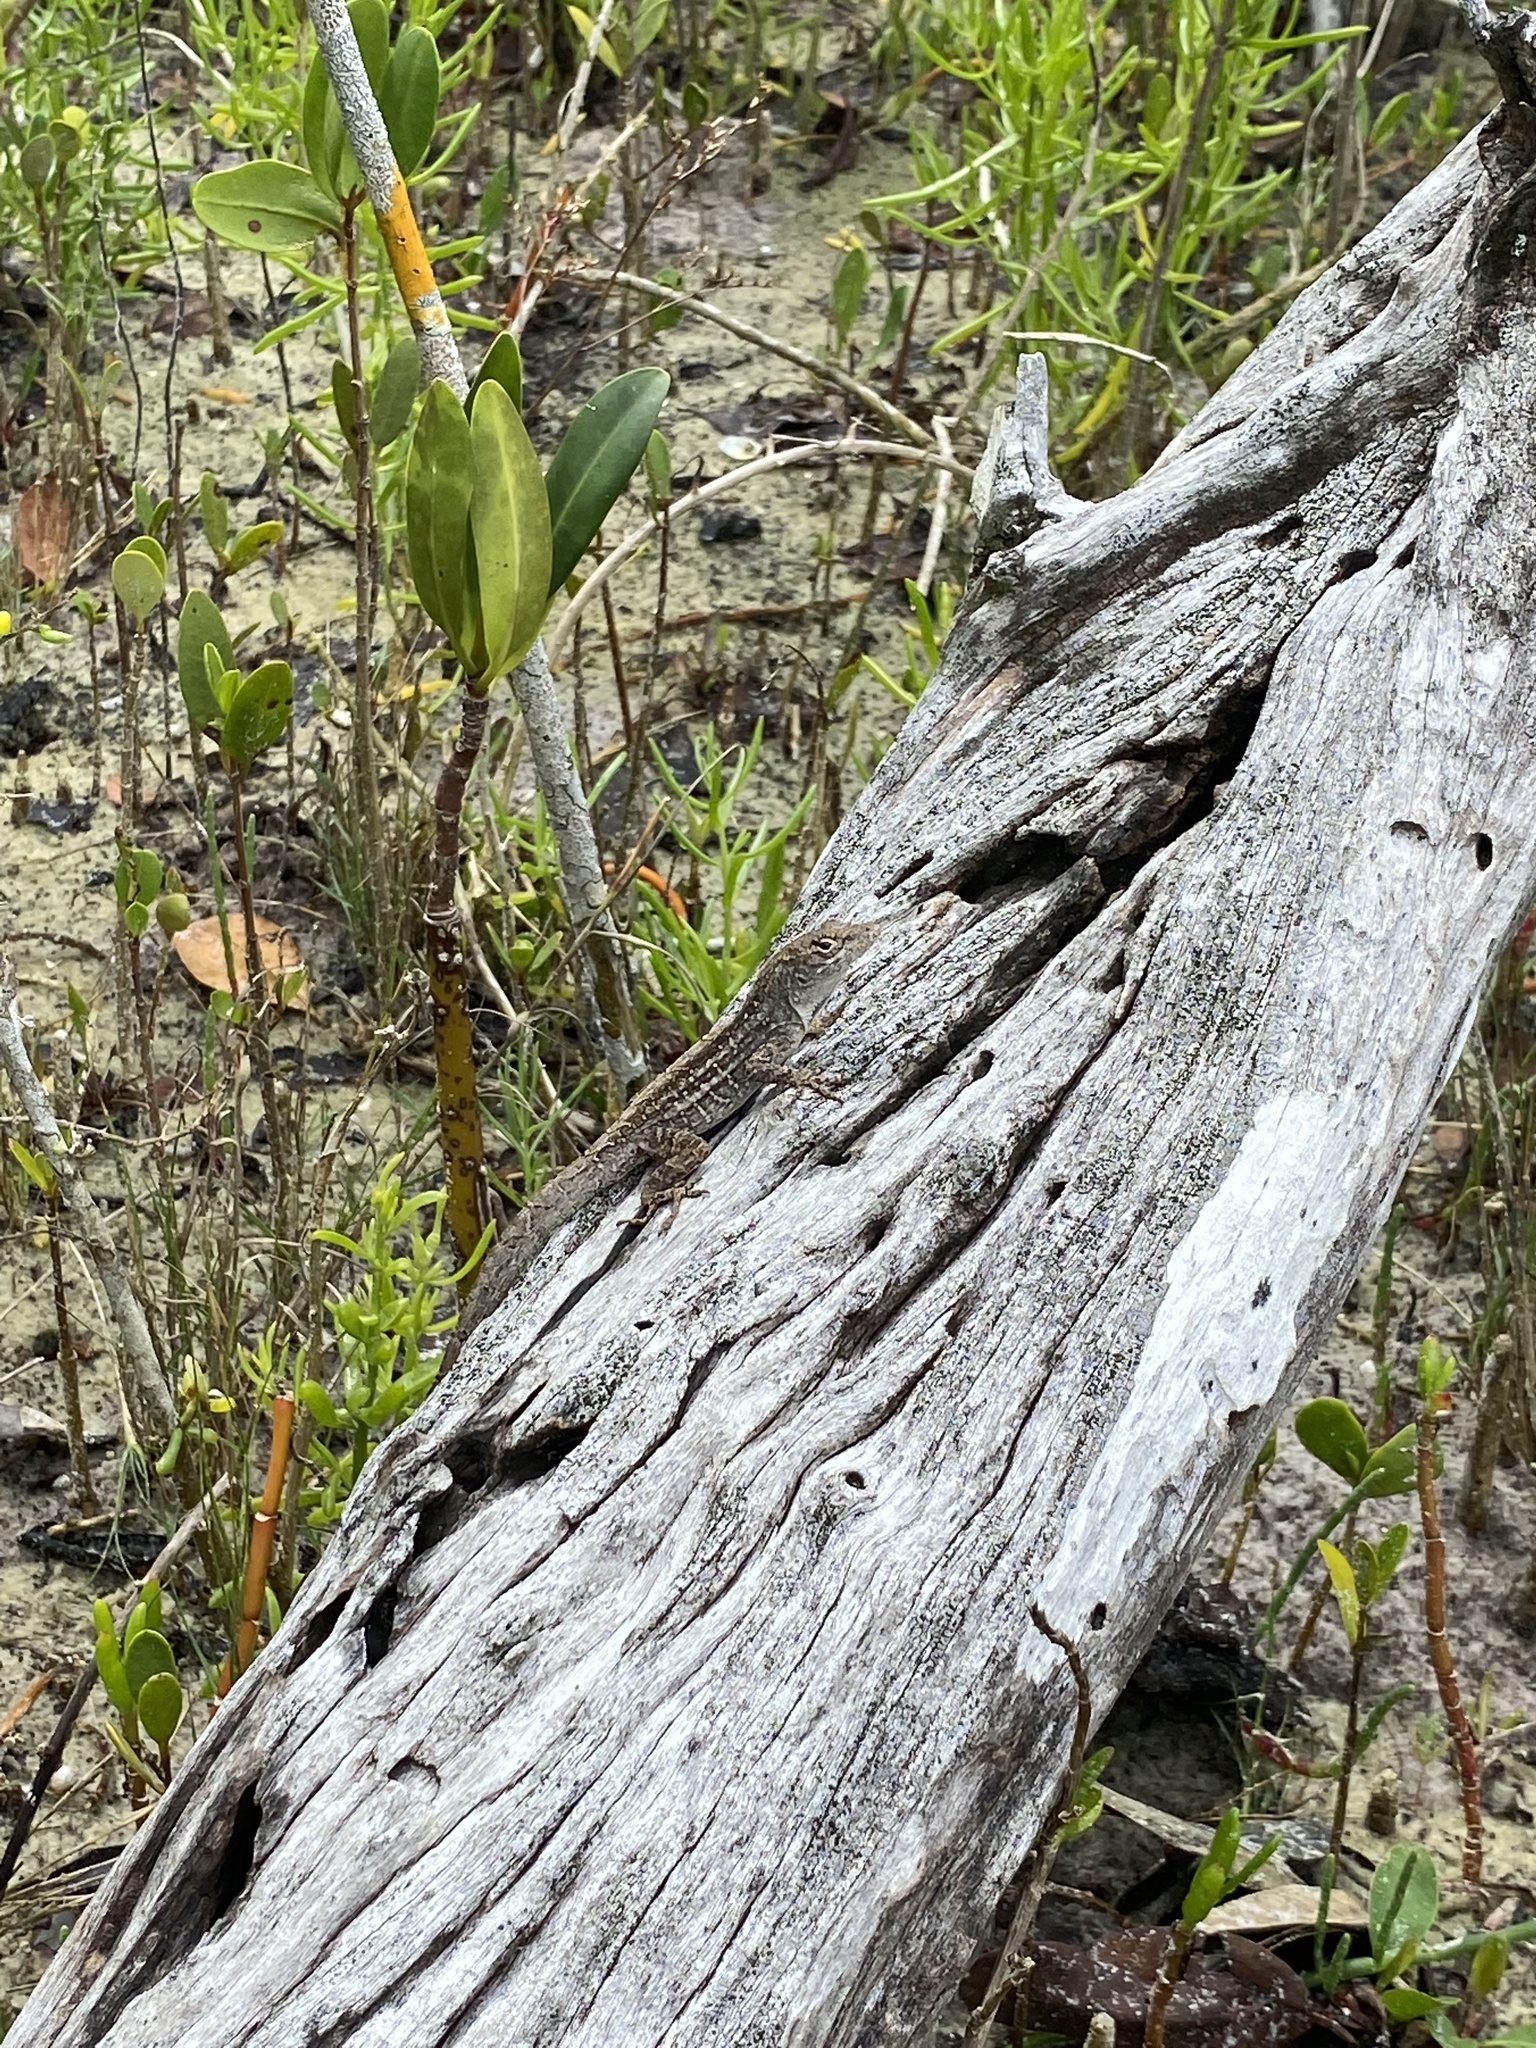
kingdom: Animalia
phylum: Chordata
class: Squamata
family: Dactyloidae
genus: Anolis
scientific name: Anolis sagrei
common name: Brown anole
